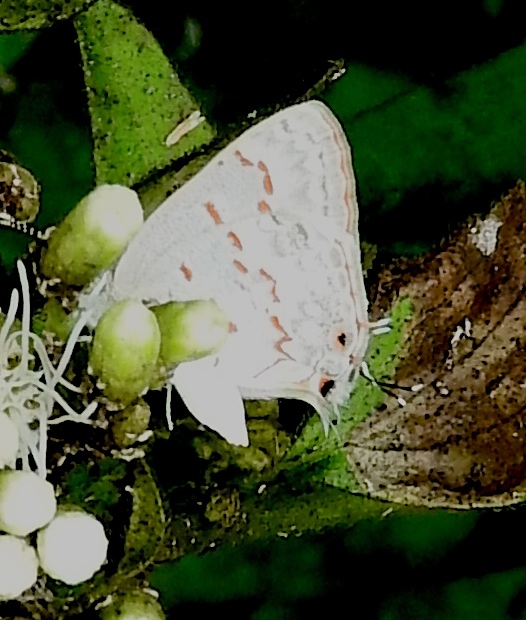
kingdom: Animalia
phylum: Arthropoda
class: Insecta
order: Lepidoptera
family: Lycaenidae
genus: Ministrymon
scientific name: Ministrymon
